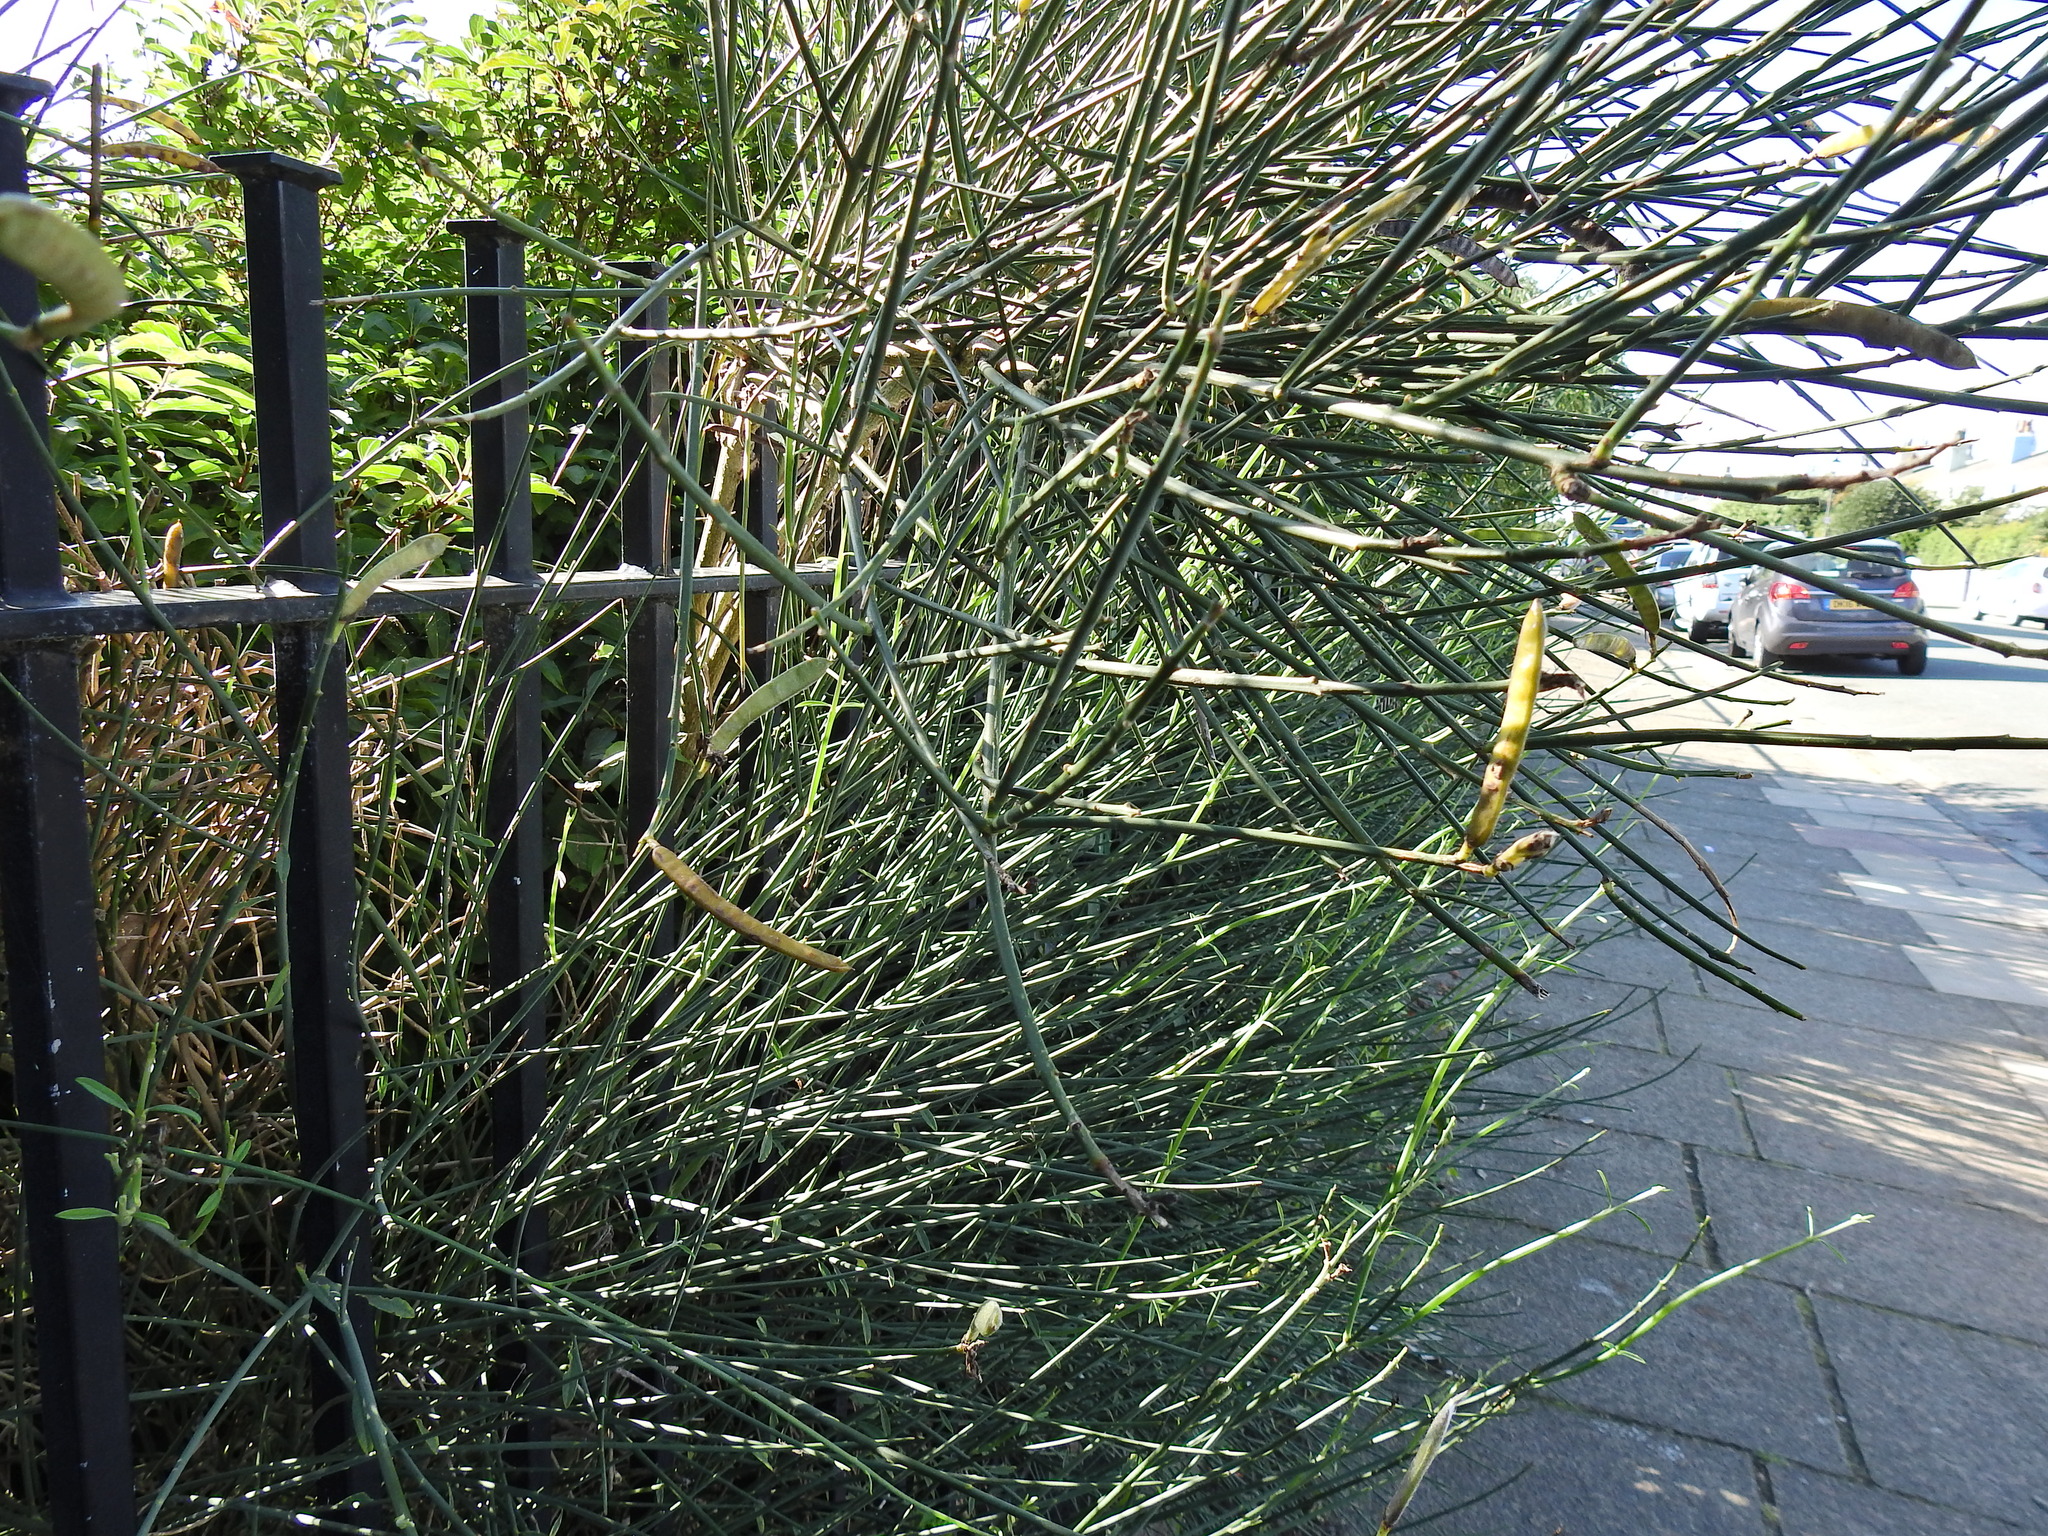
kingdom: Plantae
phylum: Tracheophyta
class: Magnoliopsida
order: Fabales
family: Fabaceae
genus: Spartium
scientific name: Spartium junceum
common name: Spanish broom
